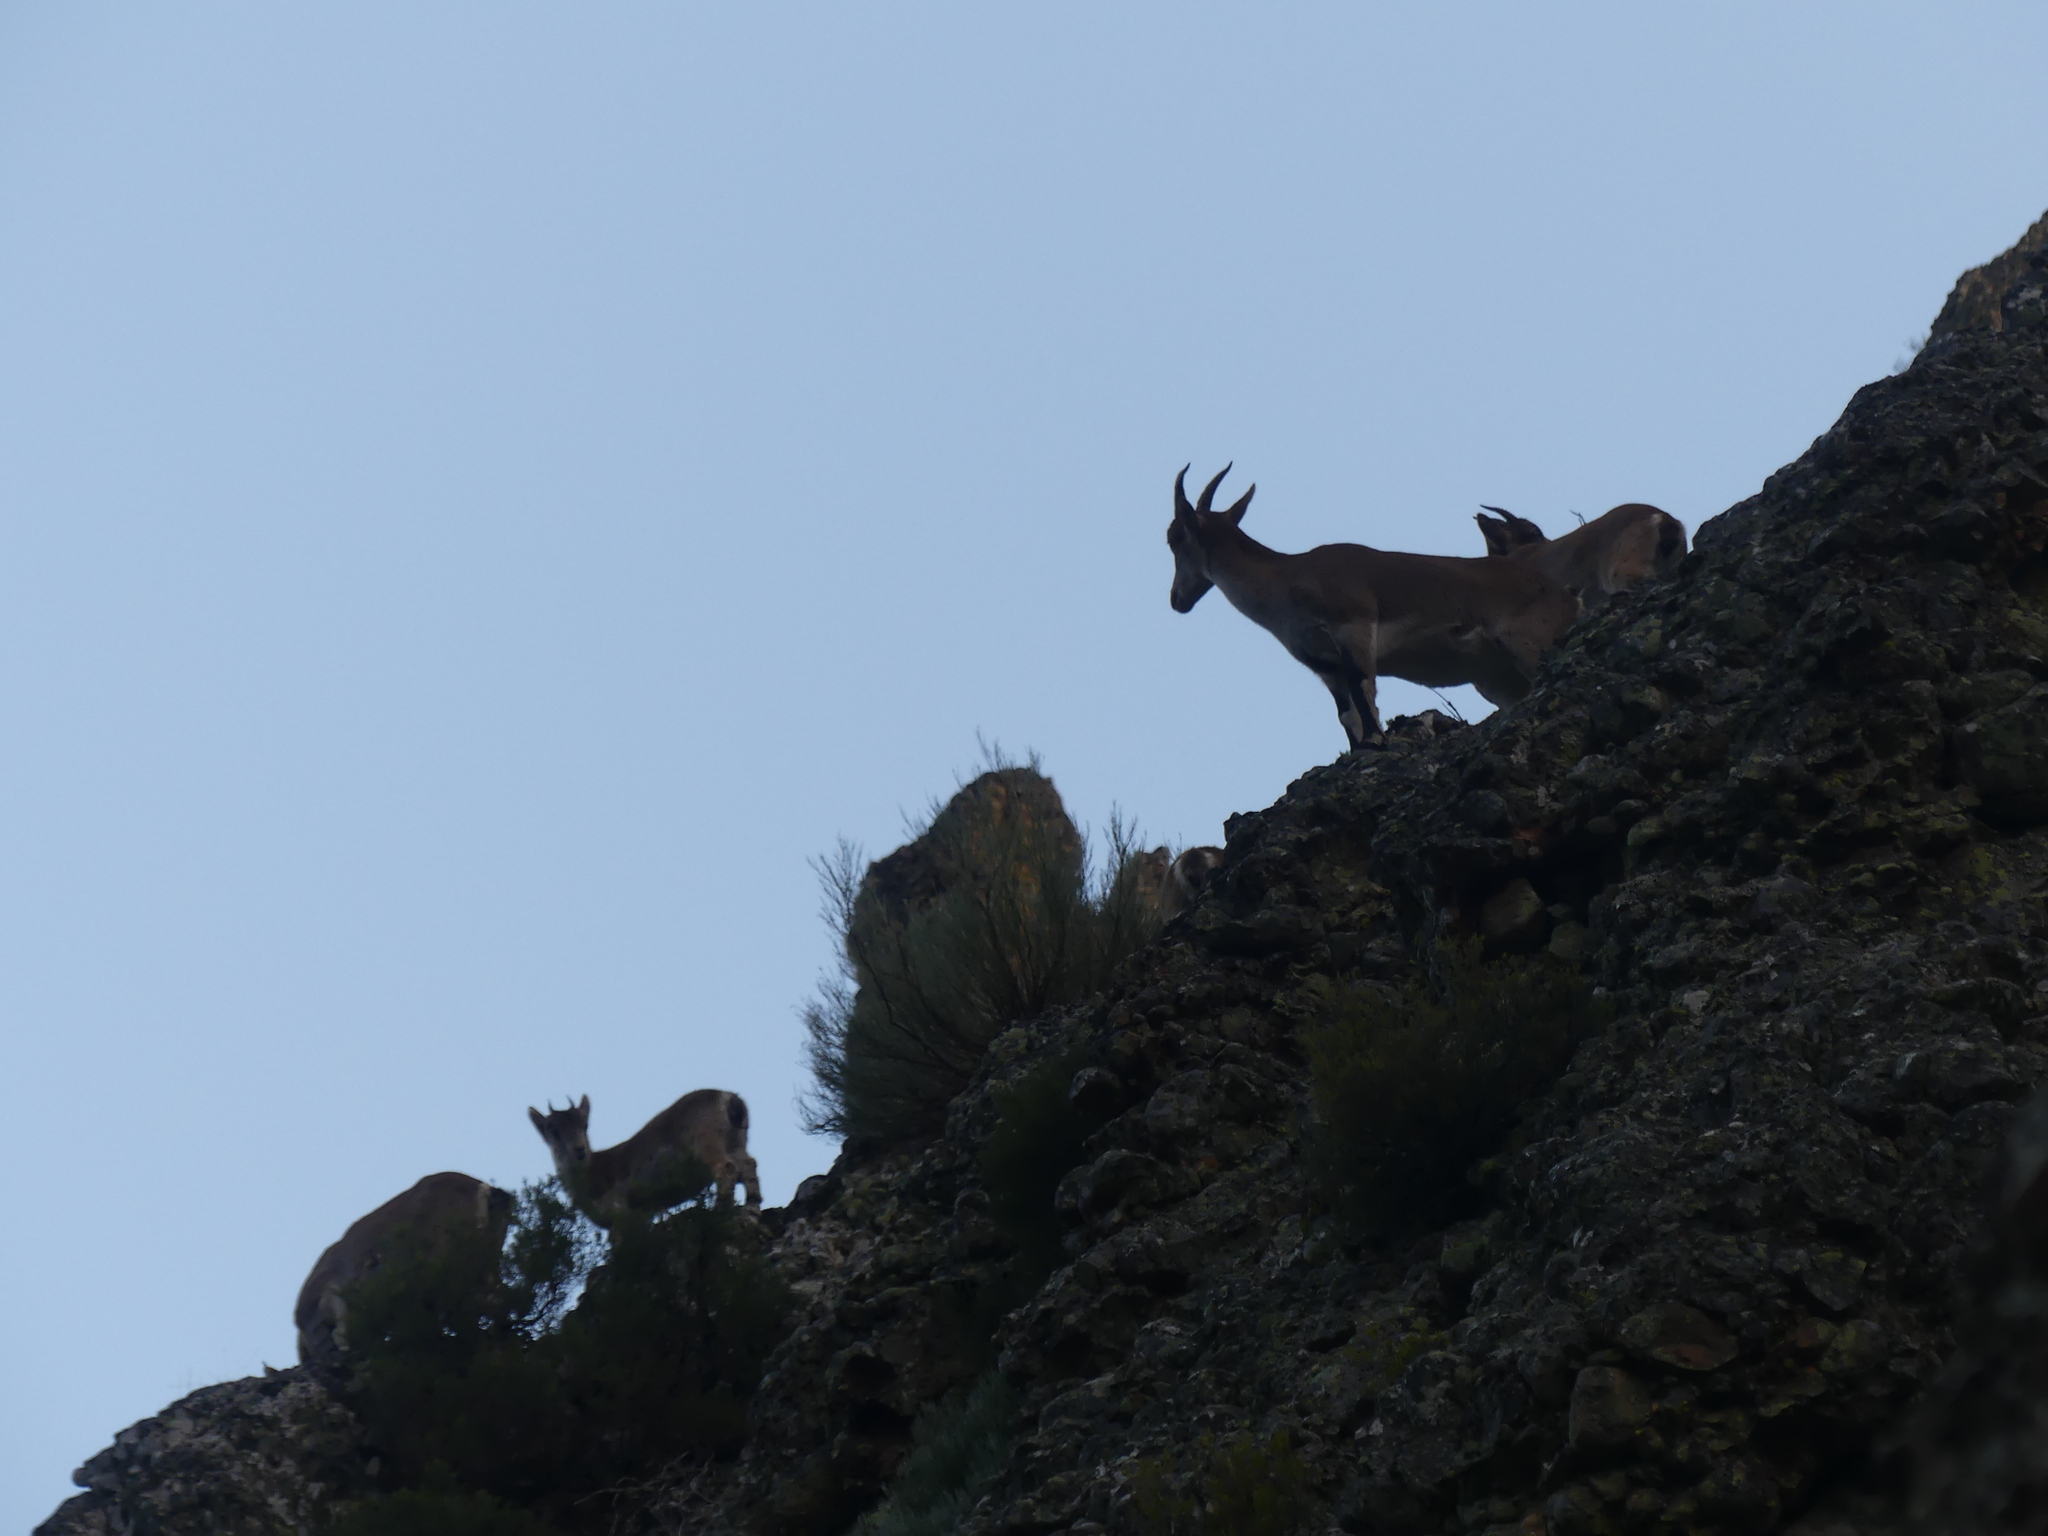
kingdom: Animalia
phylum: Chordata
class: Mammalia
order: Artiodactyla
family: Bovidae
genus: Capra
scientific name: Capra pyrenaica
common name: Spanish ibex
